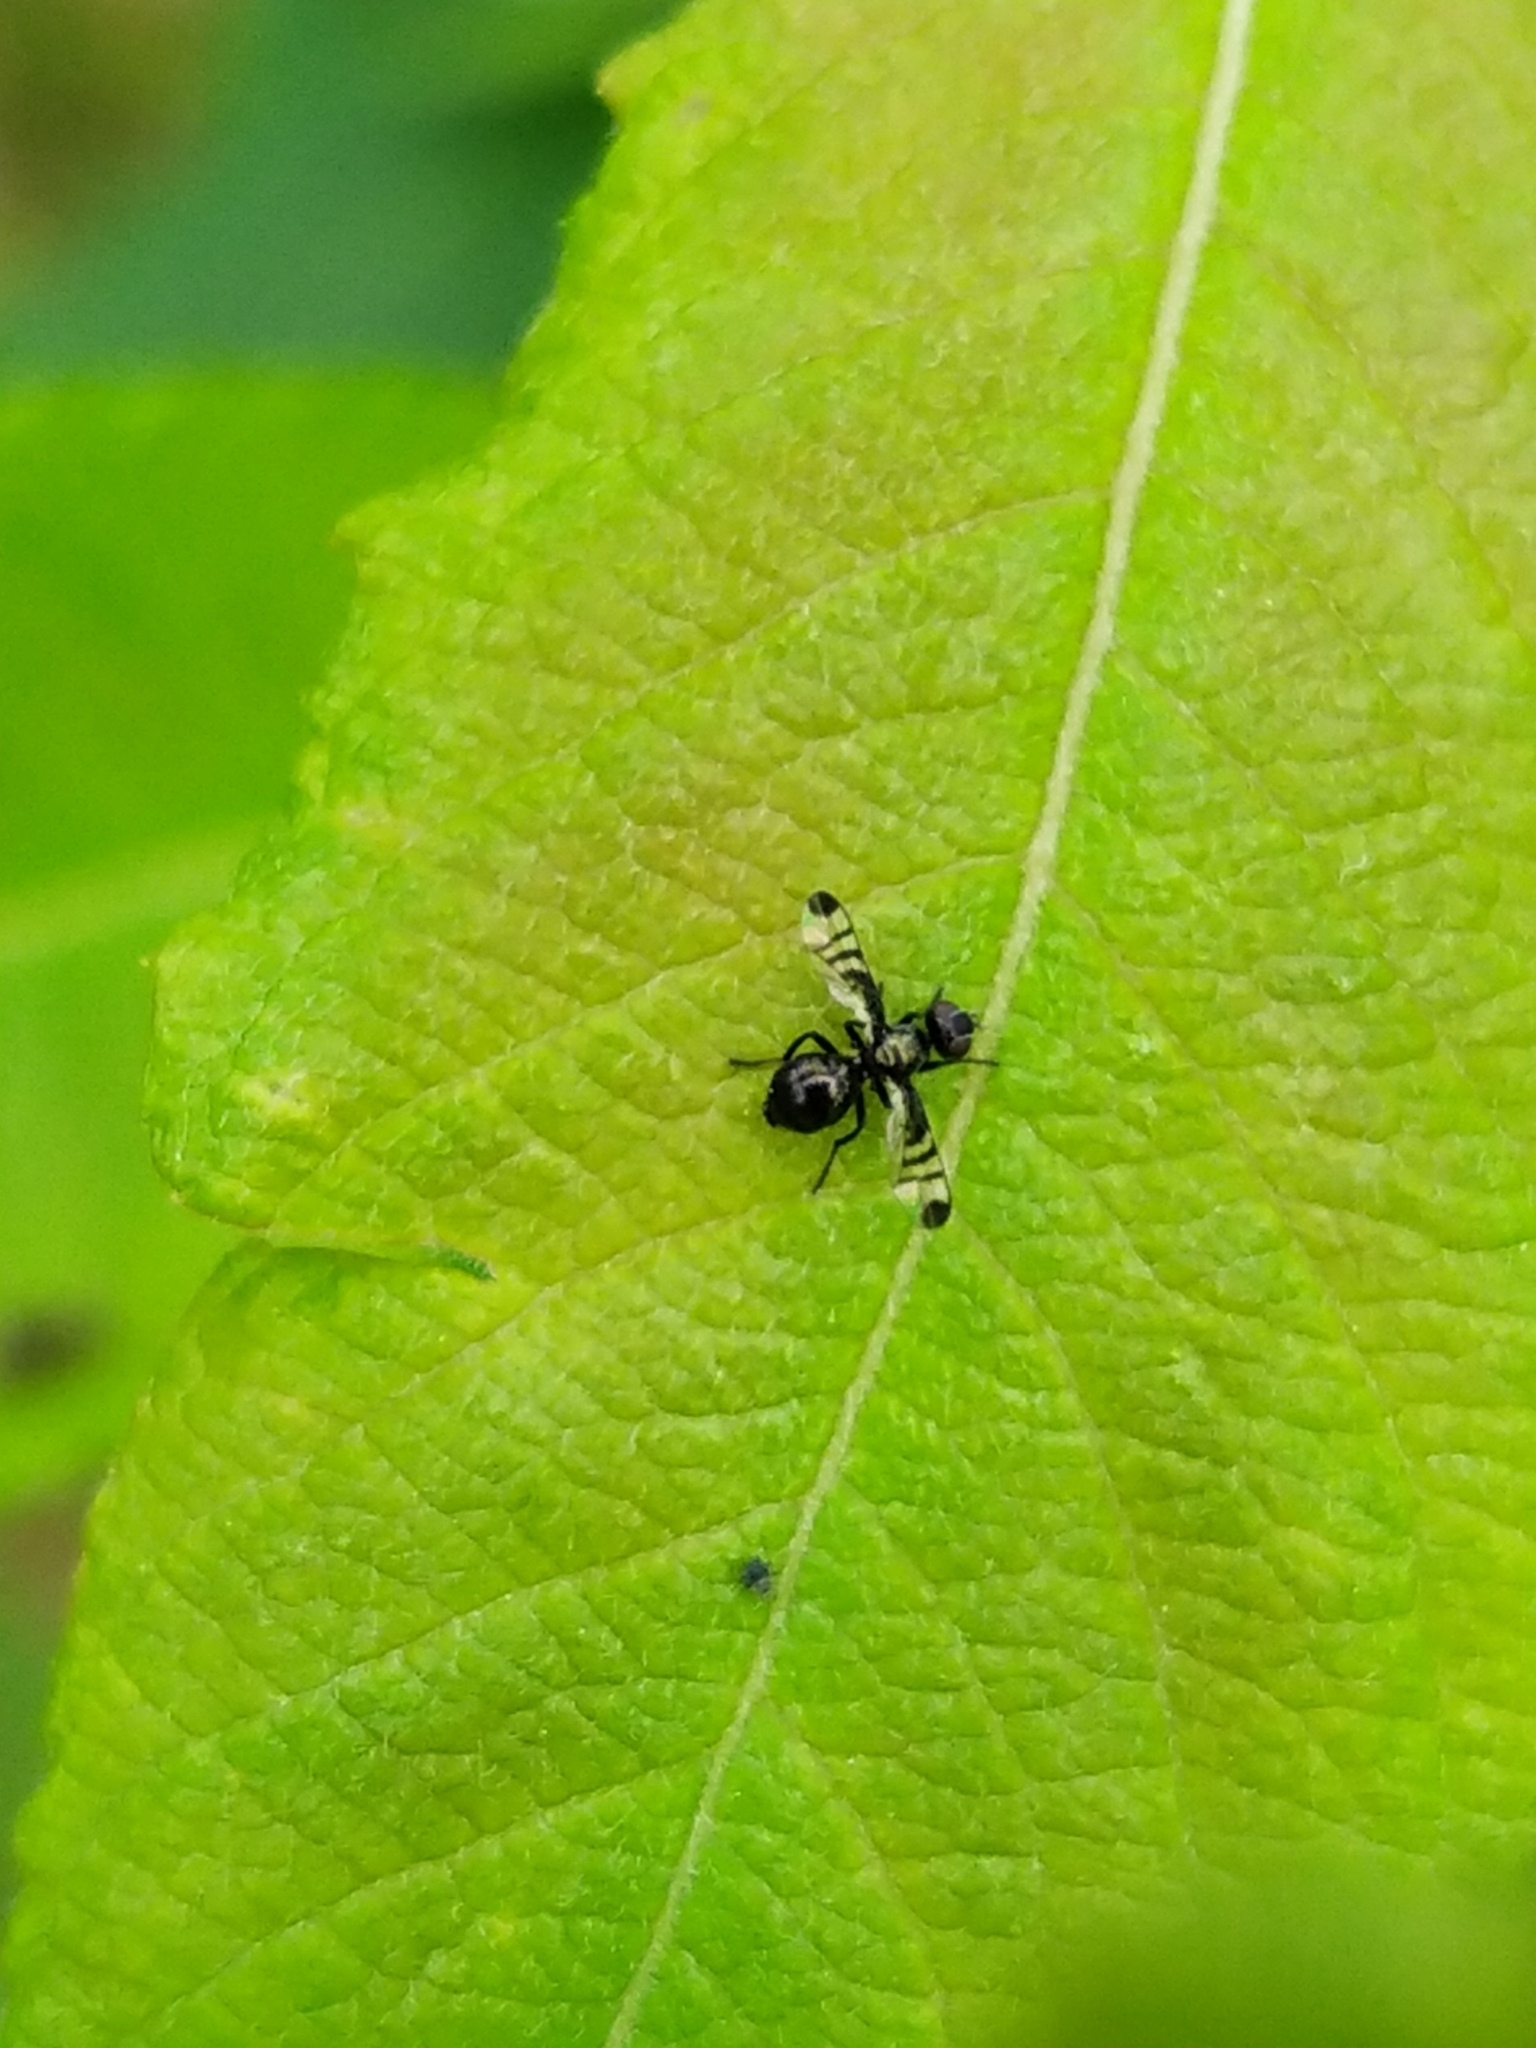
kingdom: Animalia
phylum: Arthropoda
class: Insecta
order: Diptera
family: Platystomatidae
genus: Rivellia
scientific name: Rivellia syngenesiae
